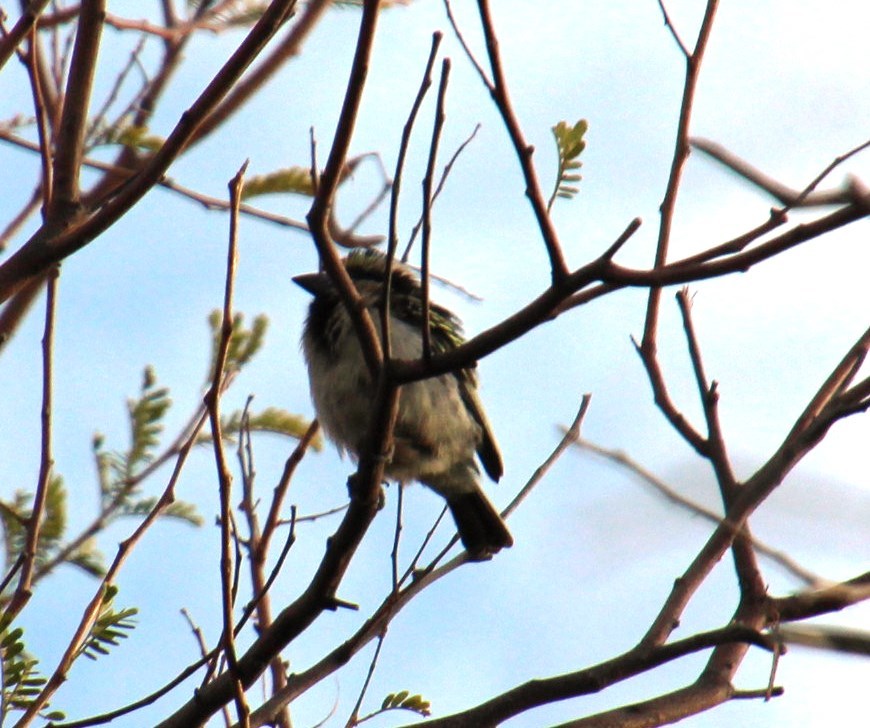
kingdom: Animalia
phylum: Chordata
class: Aves
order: Piciformes
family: Lybiidae
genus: Tricholaema
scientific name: Tricholaema leucomelas
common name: Acacia pied barbet
